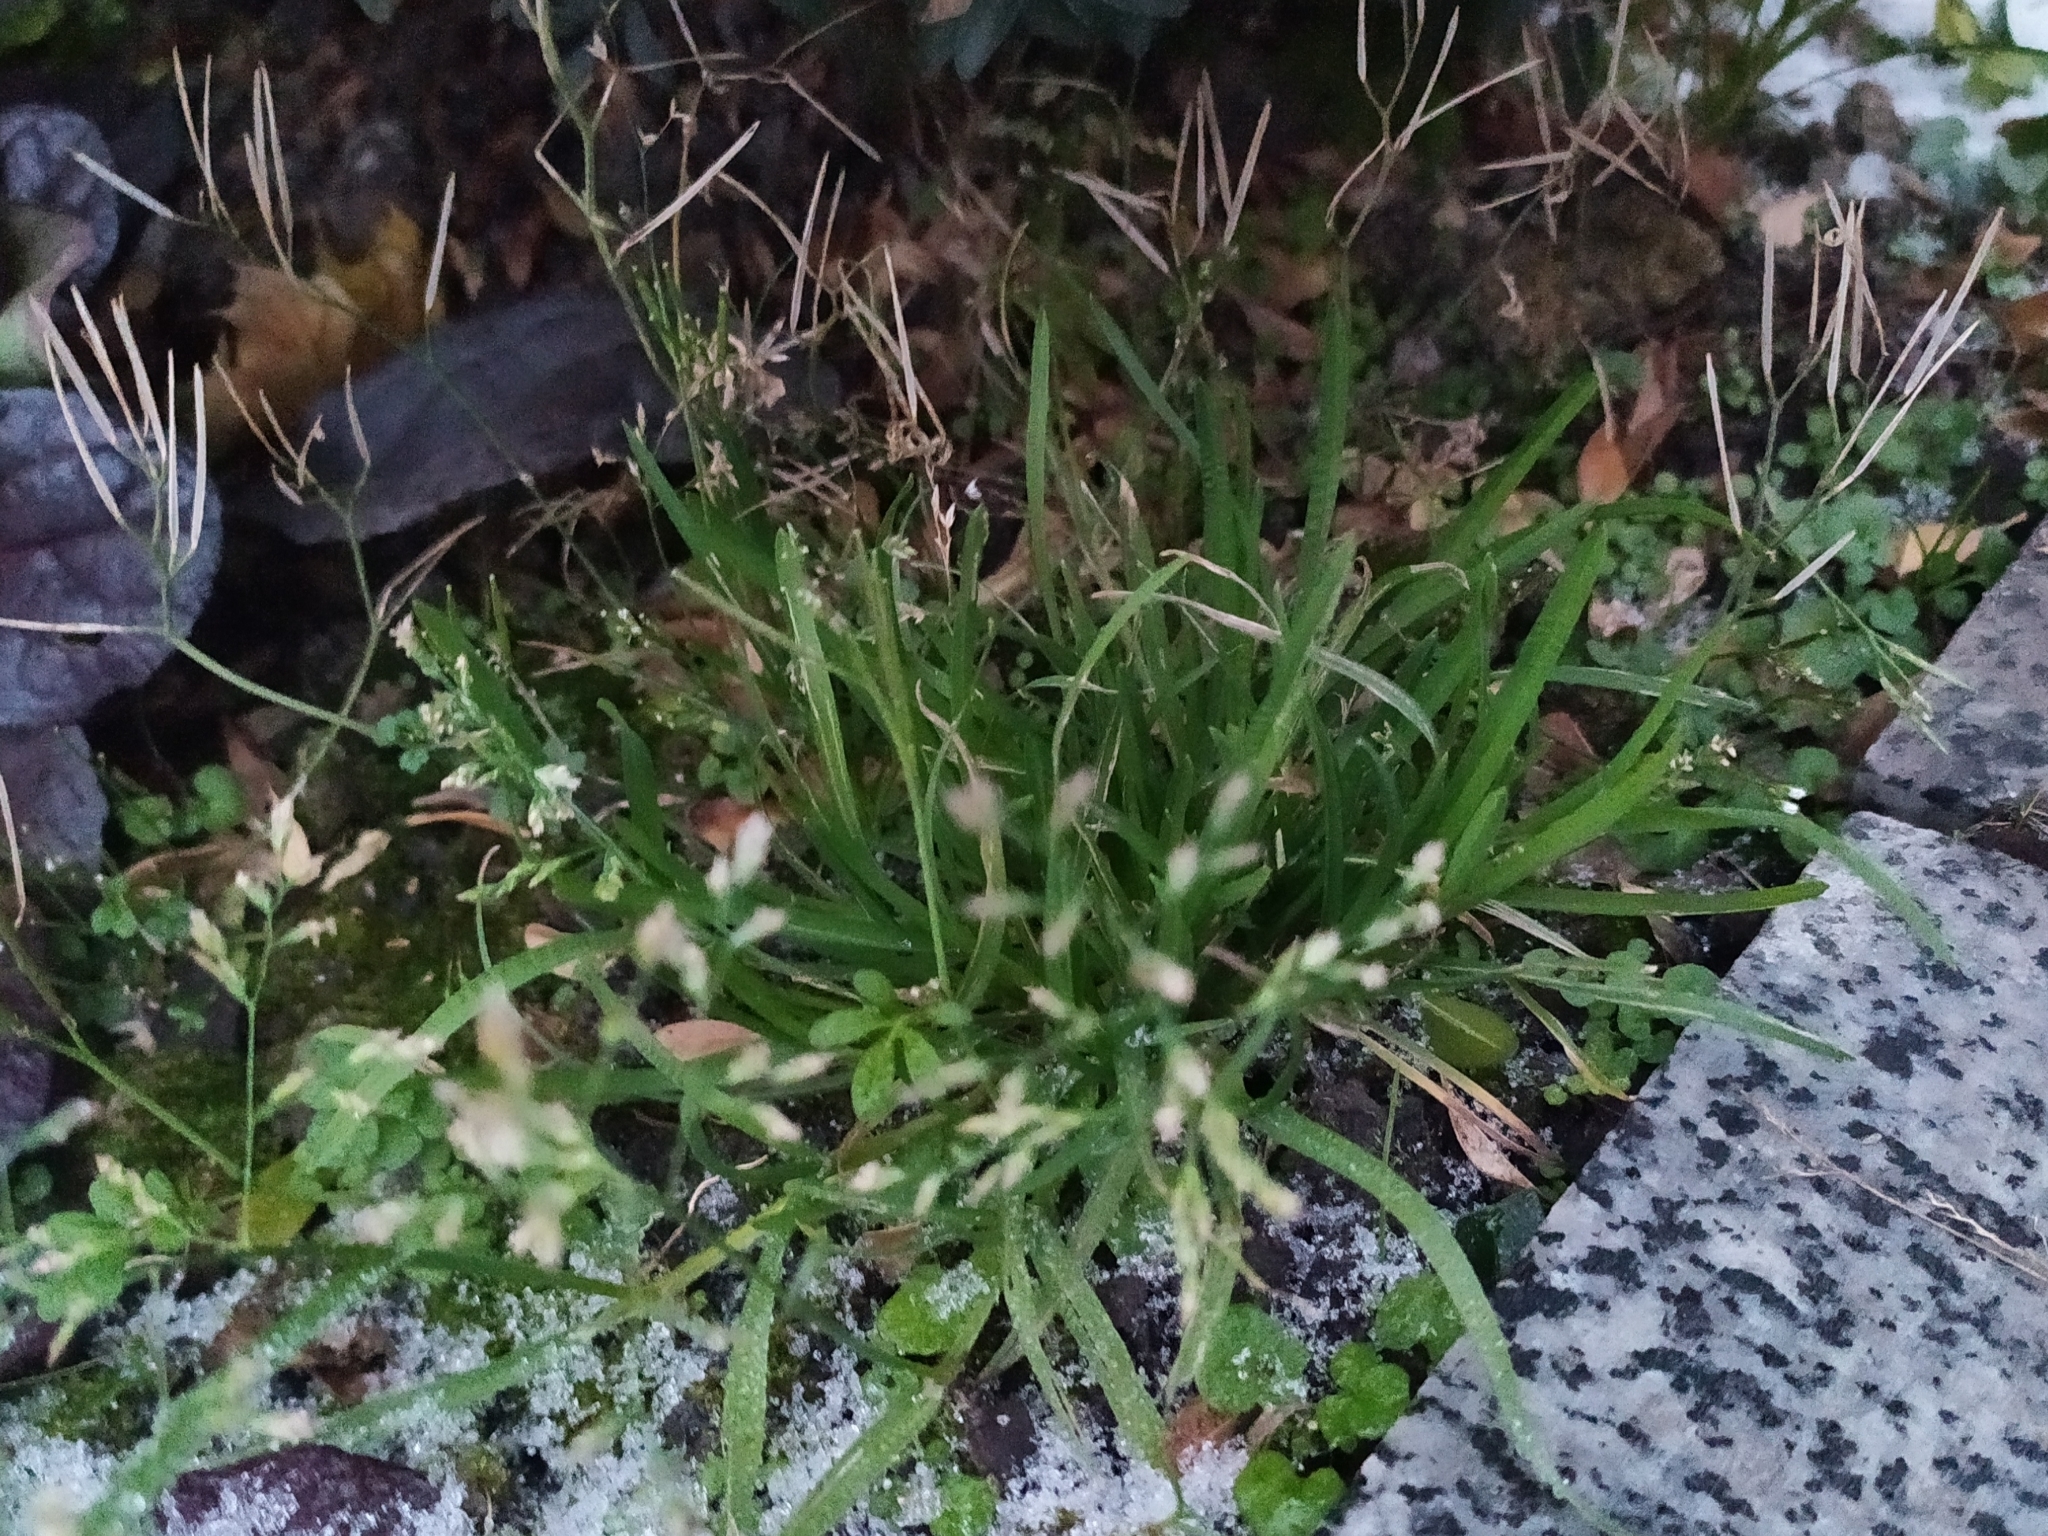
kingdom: Plantae
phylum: Tracheophyta
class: Liliopsida
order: Poales
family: Poaceae
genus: Poa
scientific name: Poa annua
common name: Annual bluegrass
